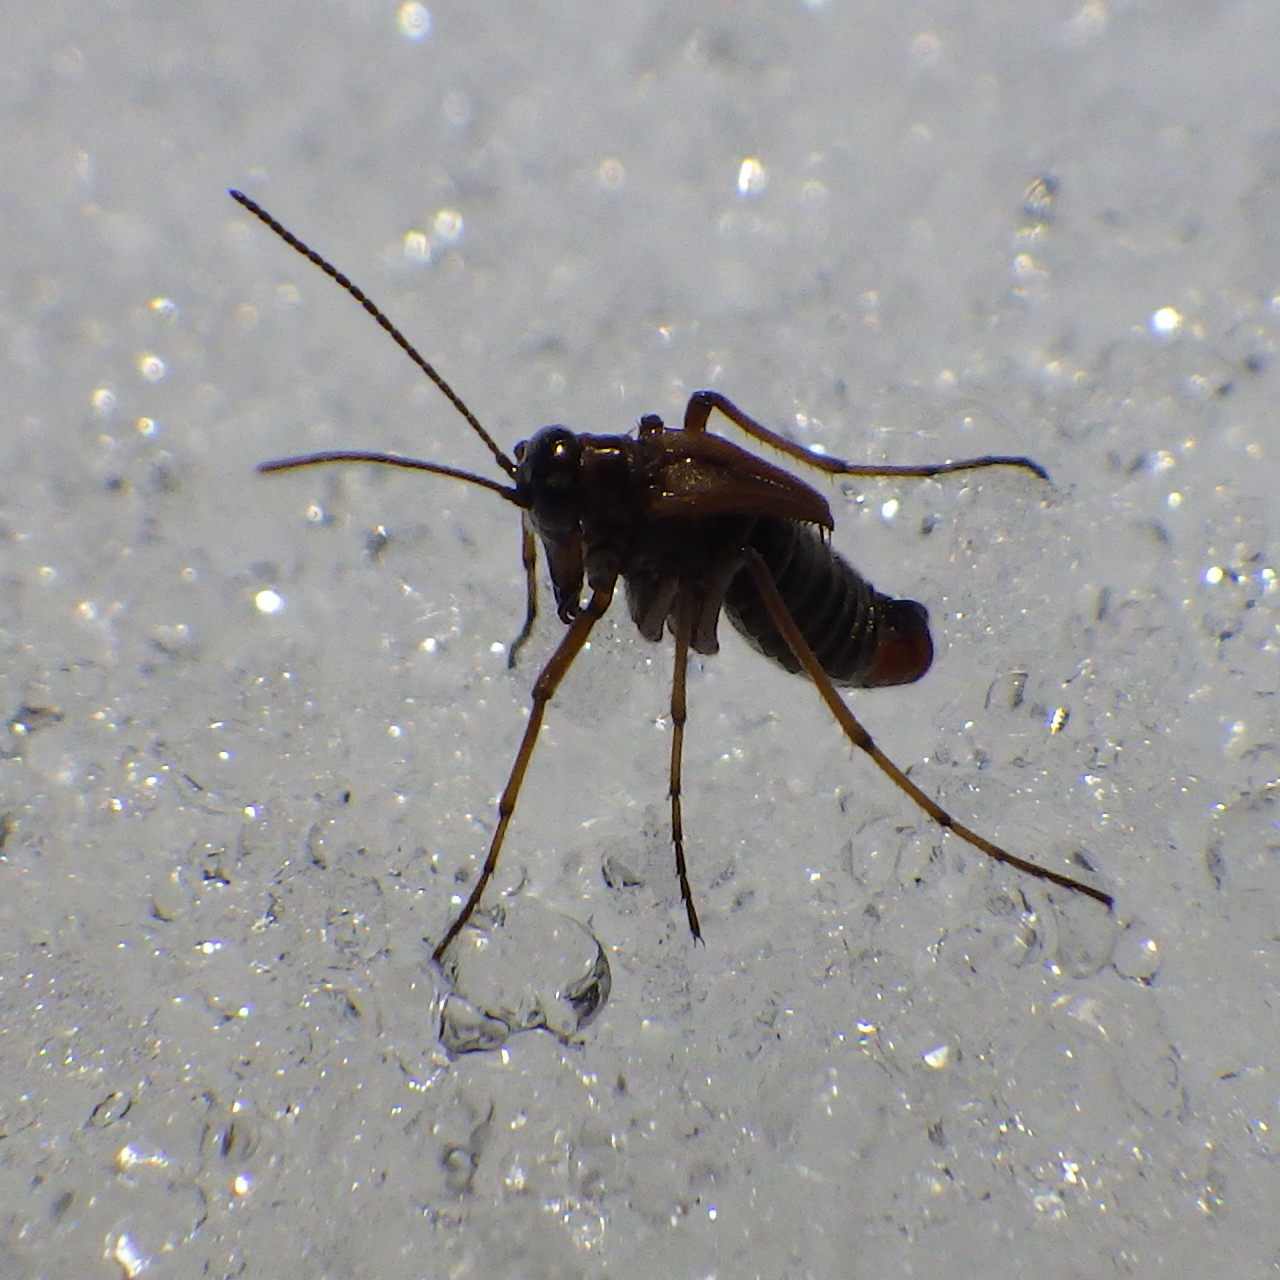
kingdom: Animalia
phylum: Arthropoda
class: Insecta
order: Mecoptera
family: Boreidae
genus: Boreus
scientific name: Boreus nivoriundus
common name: Snow-born boreus
